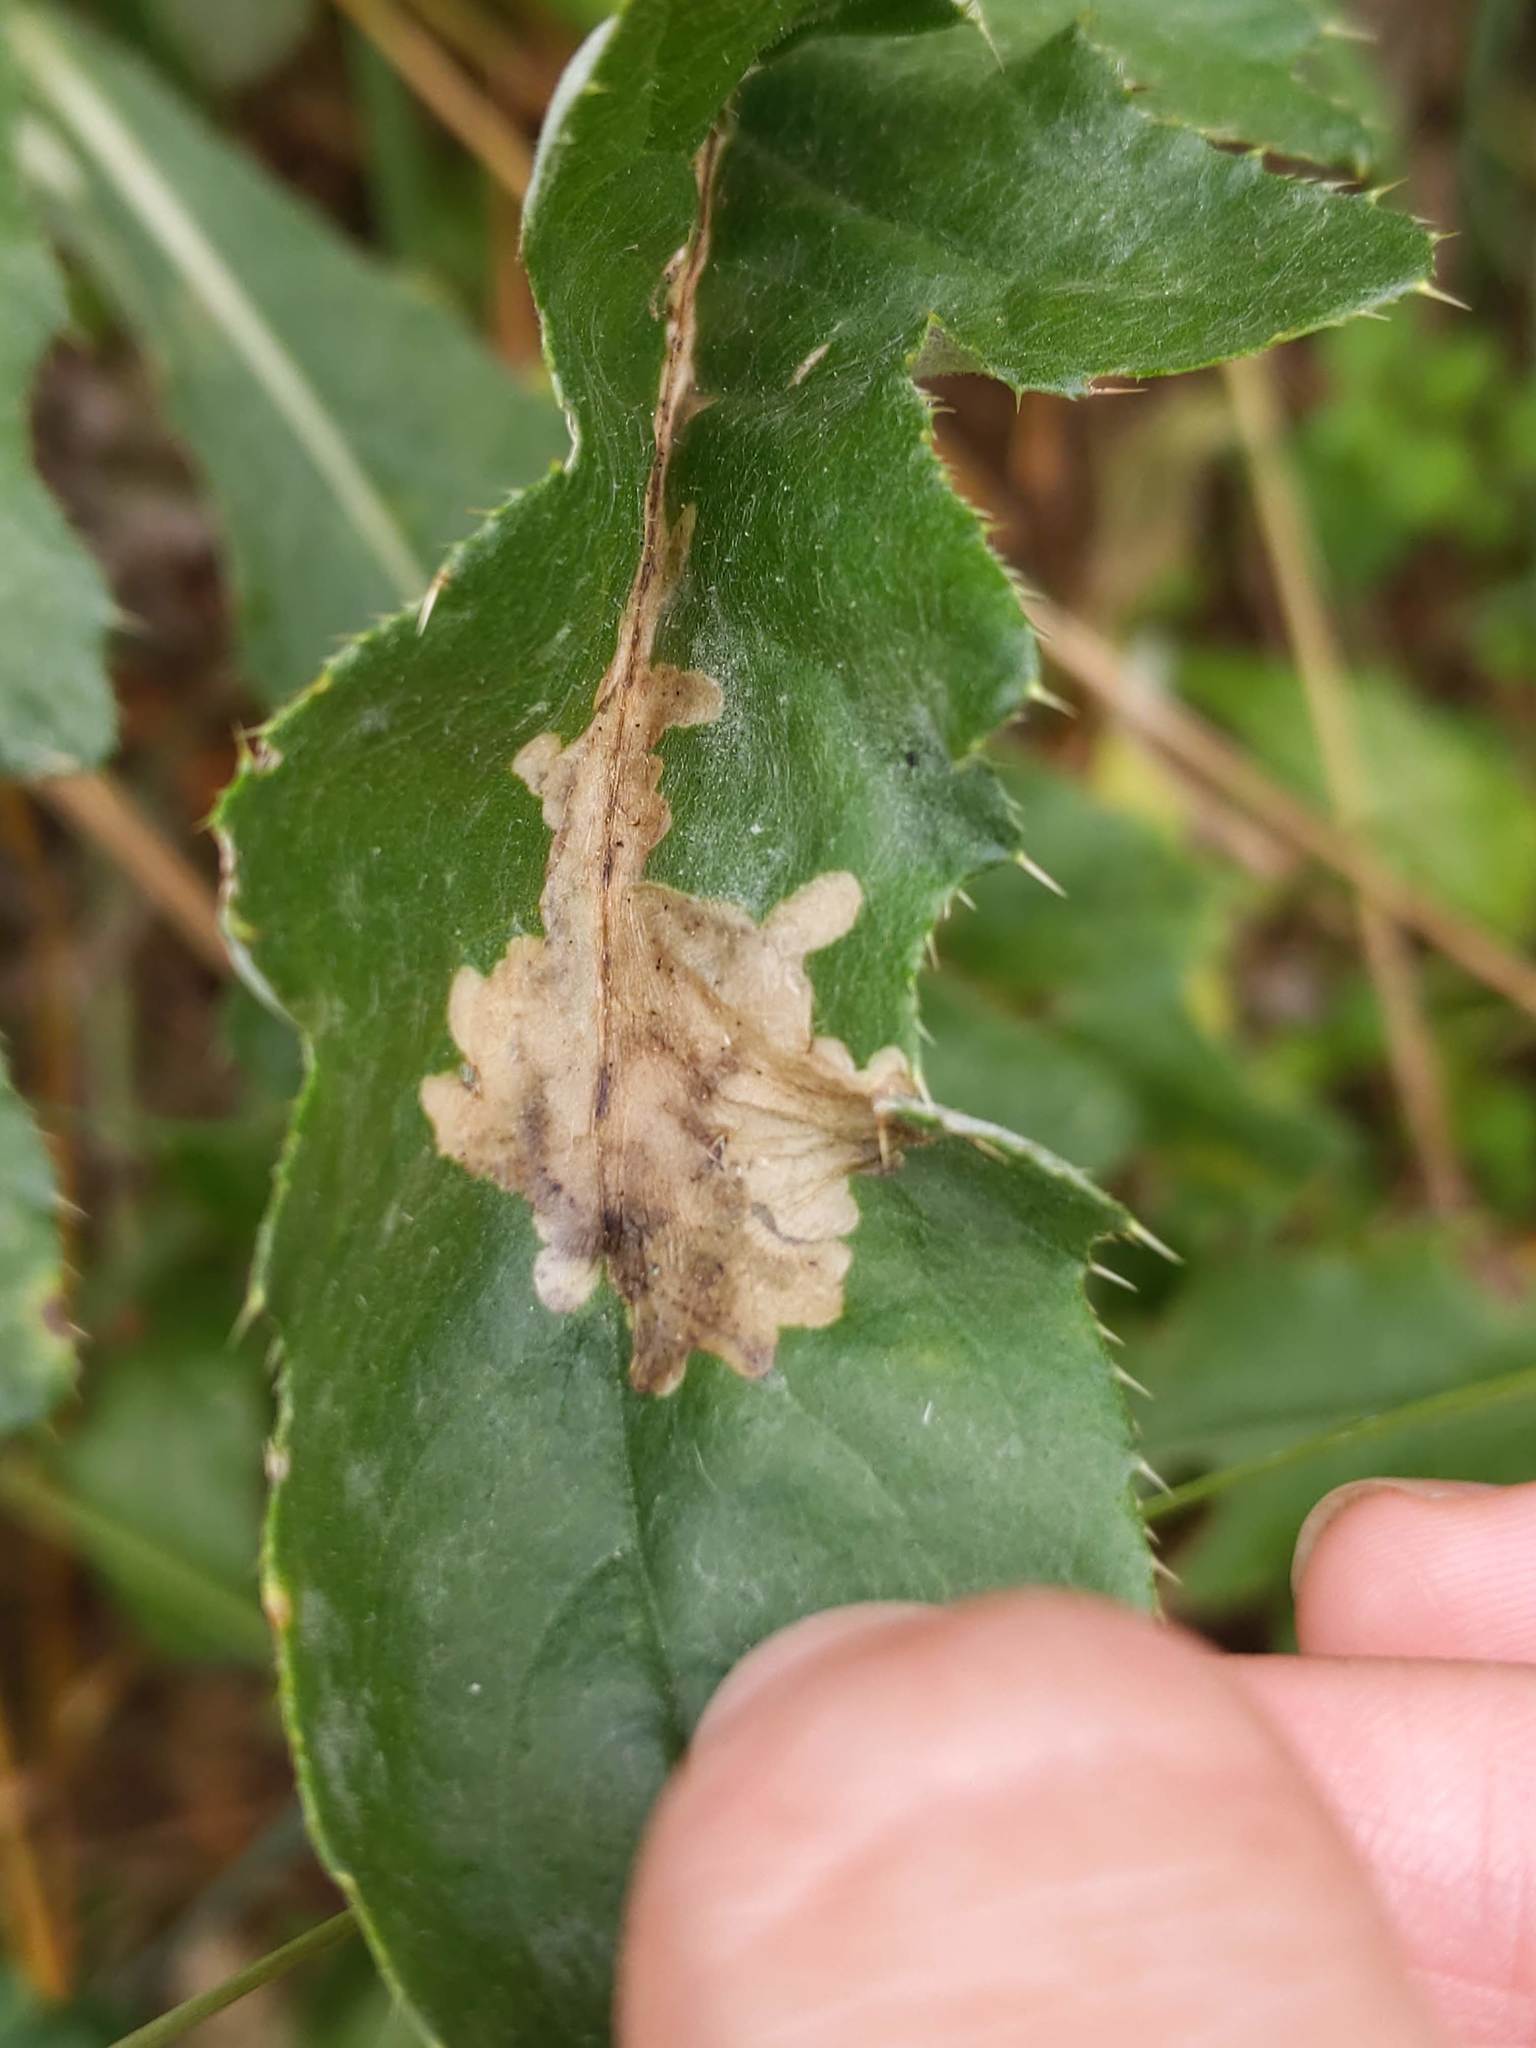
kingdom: Animalia
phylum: Arthropoda
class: Insecta
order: Lepidoptera
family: Gelechiidae
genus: Scrobipalpa
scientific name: Scrobipalpa acuminatella
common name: Pointed groundling
